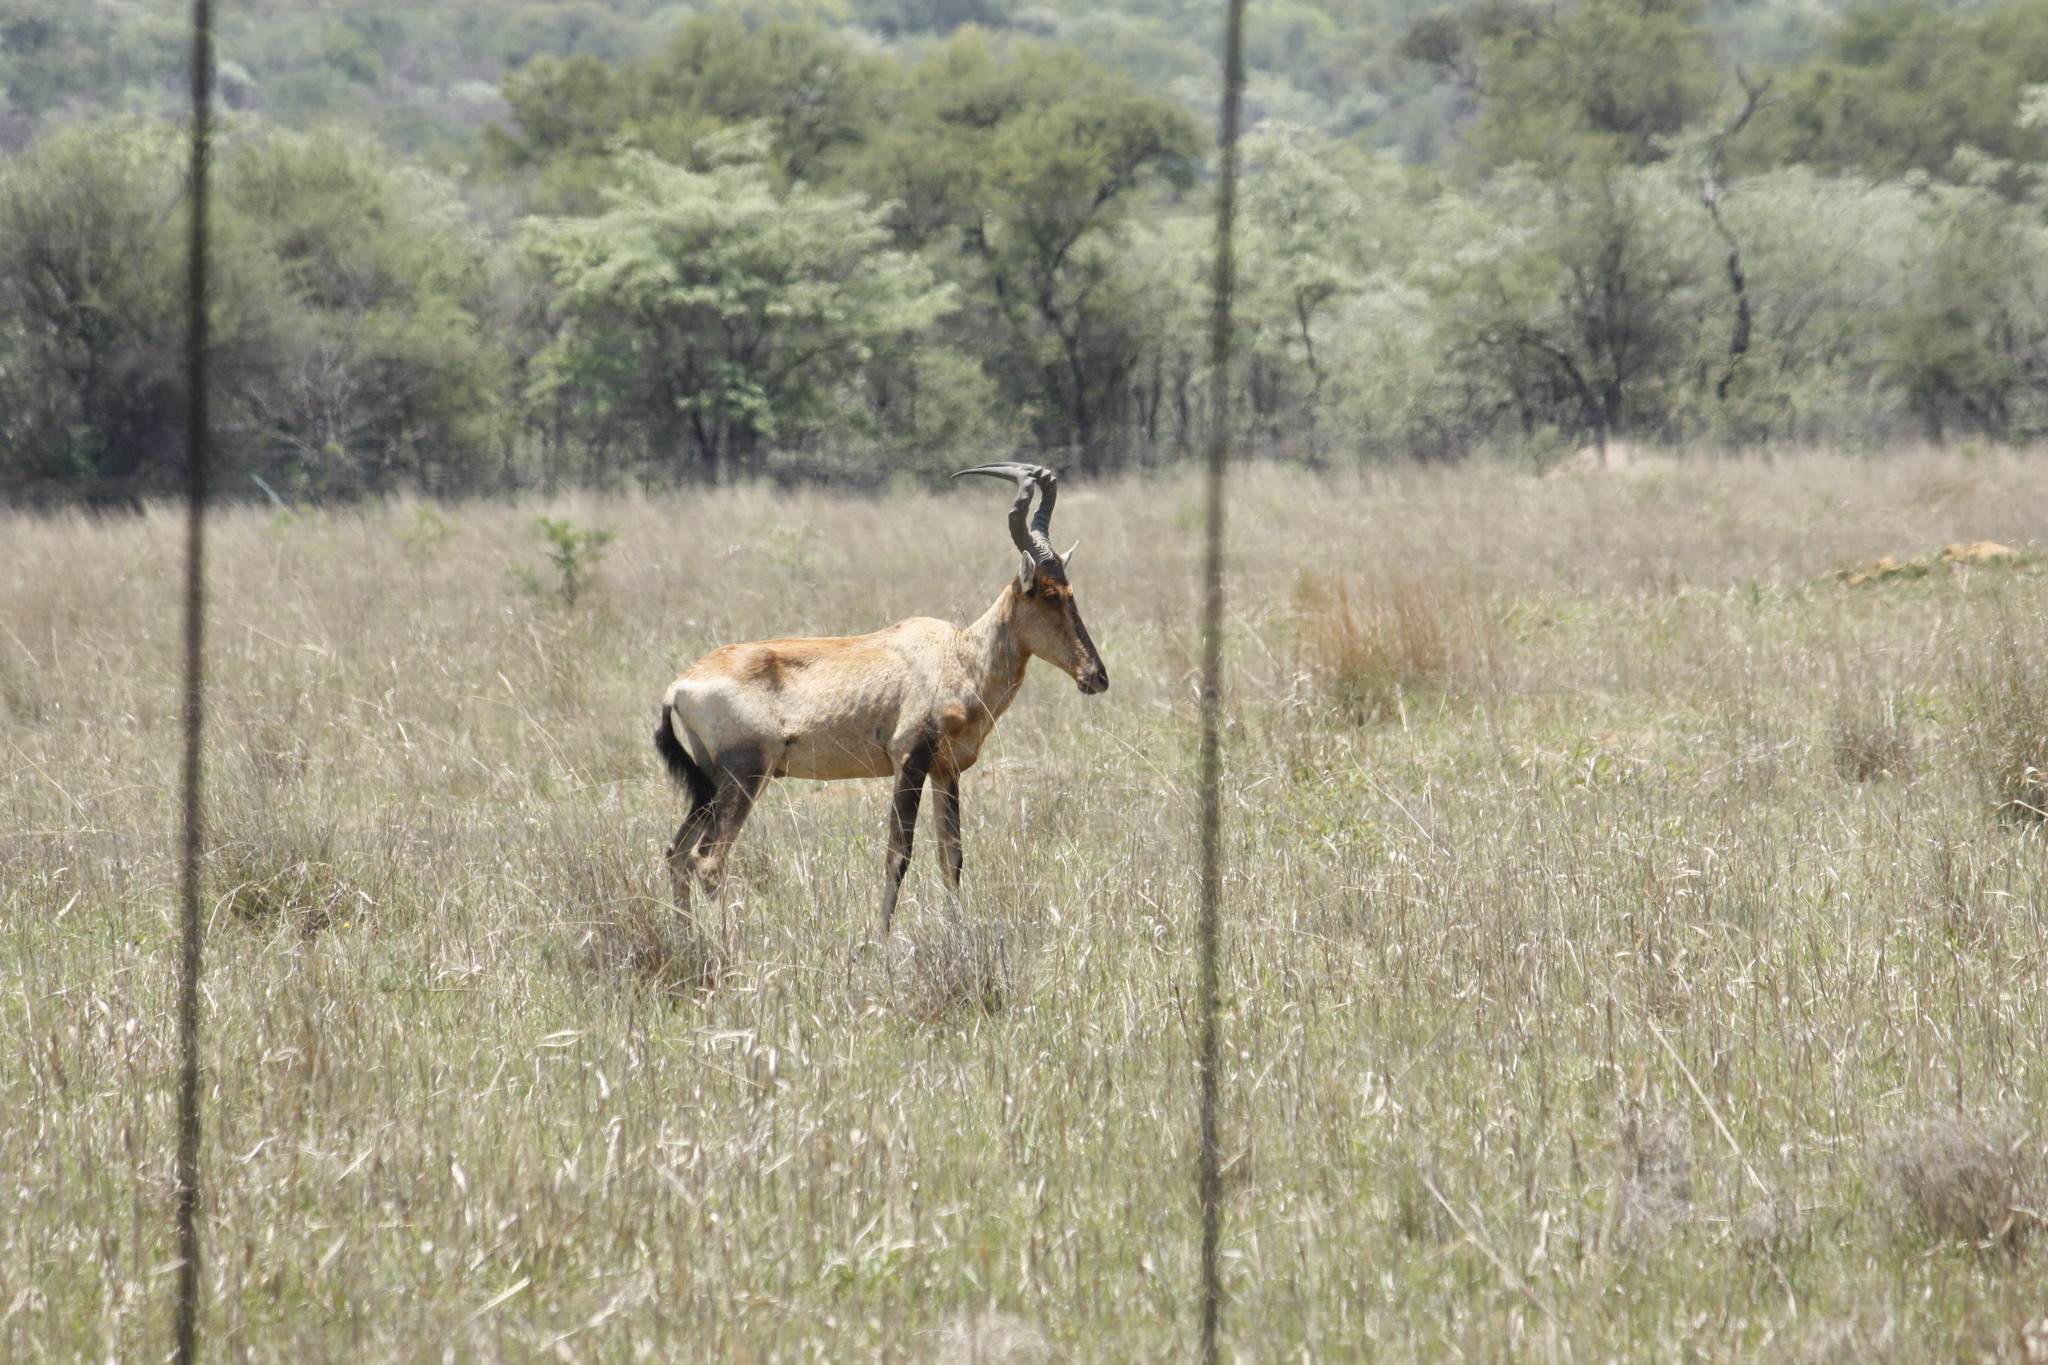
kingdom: Animalia
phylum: Chordata
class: Mammalia
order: Artiodactyla
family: Bovidae
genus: Alcelaphus
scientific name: Alcelaphus caama
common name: Red hartebeest
